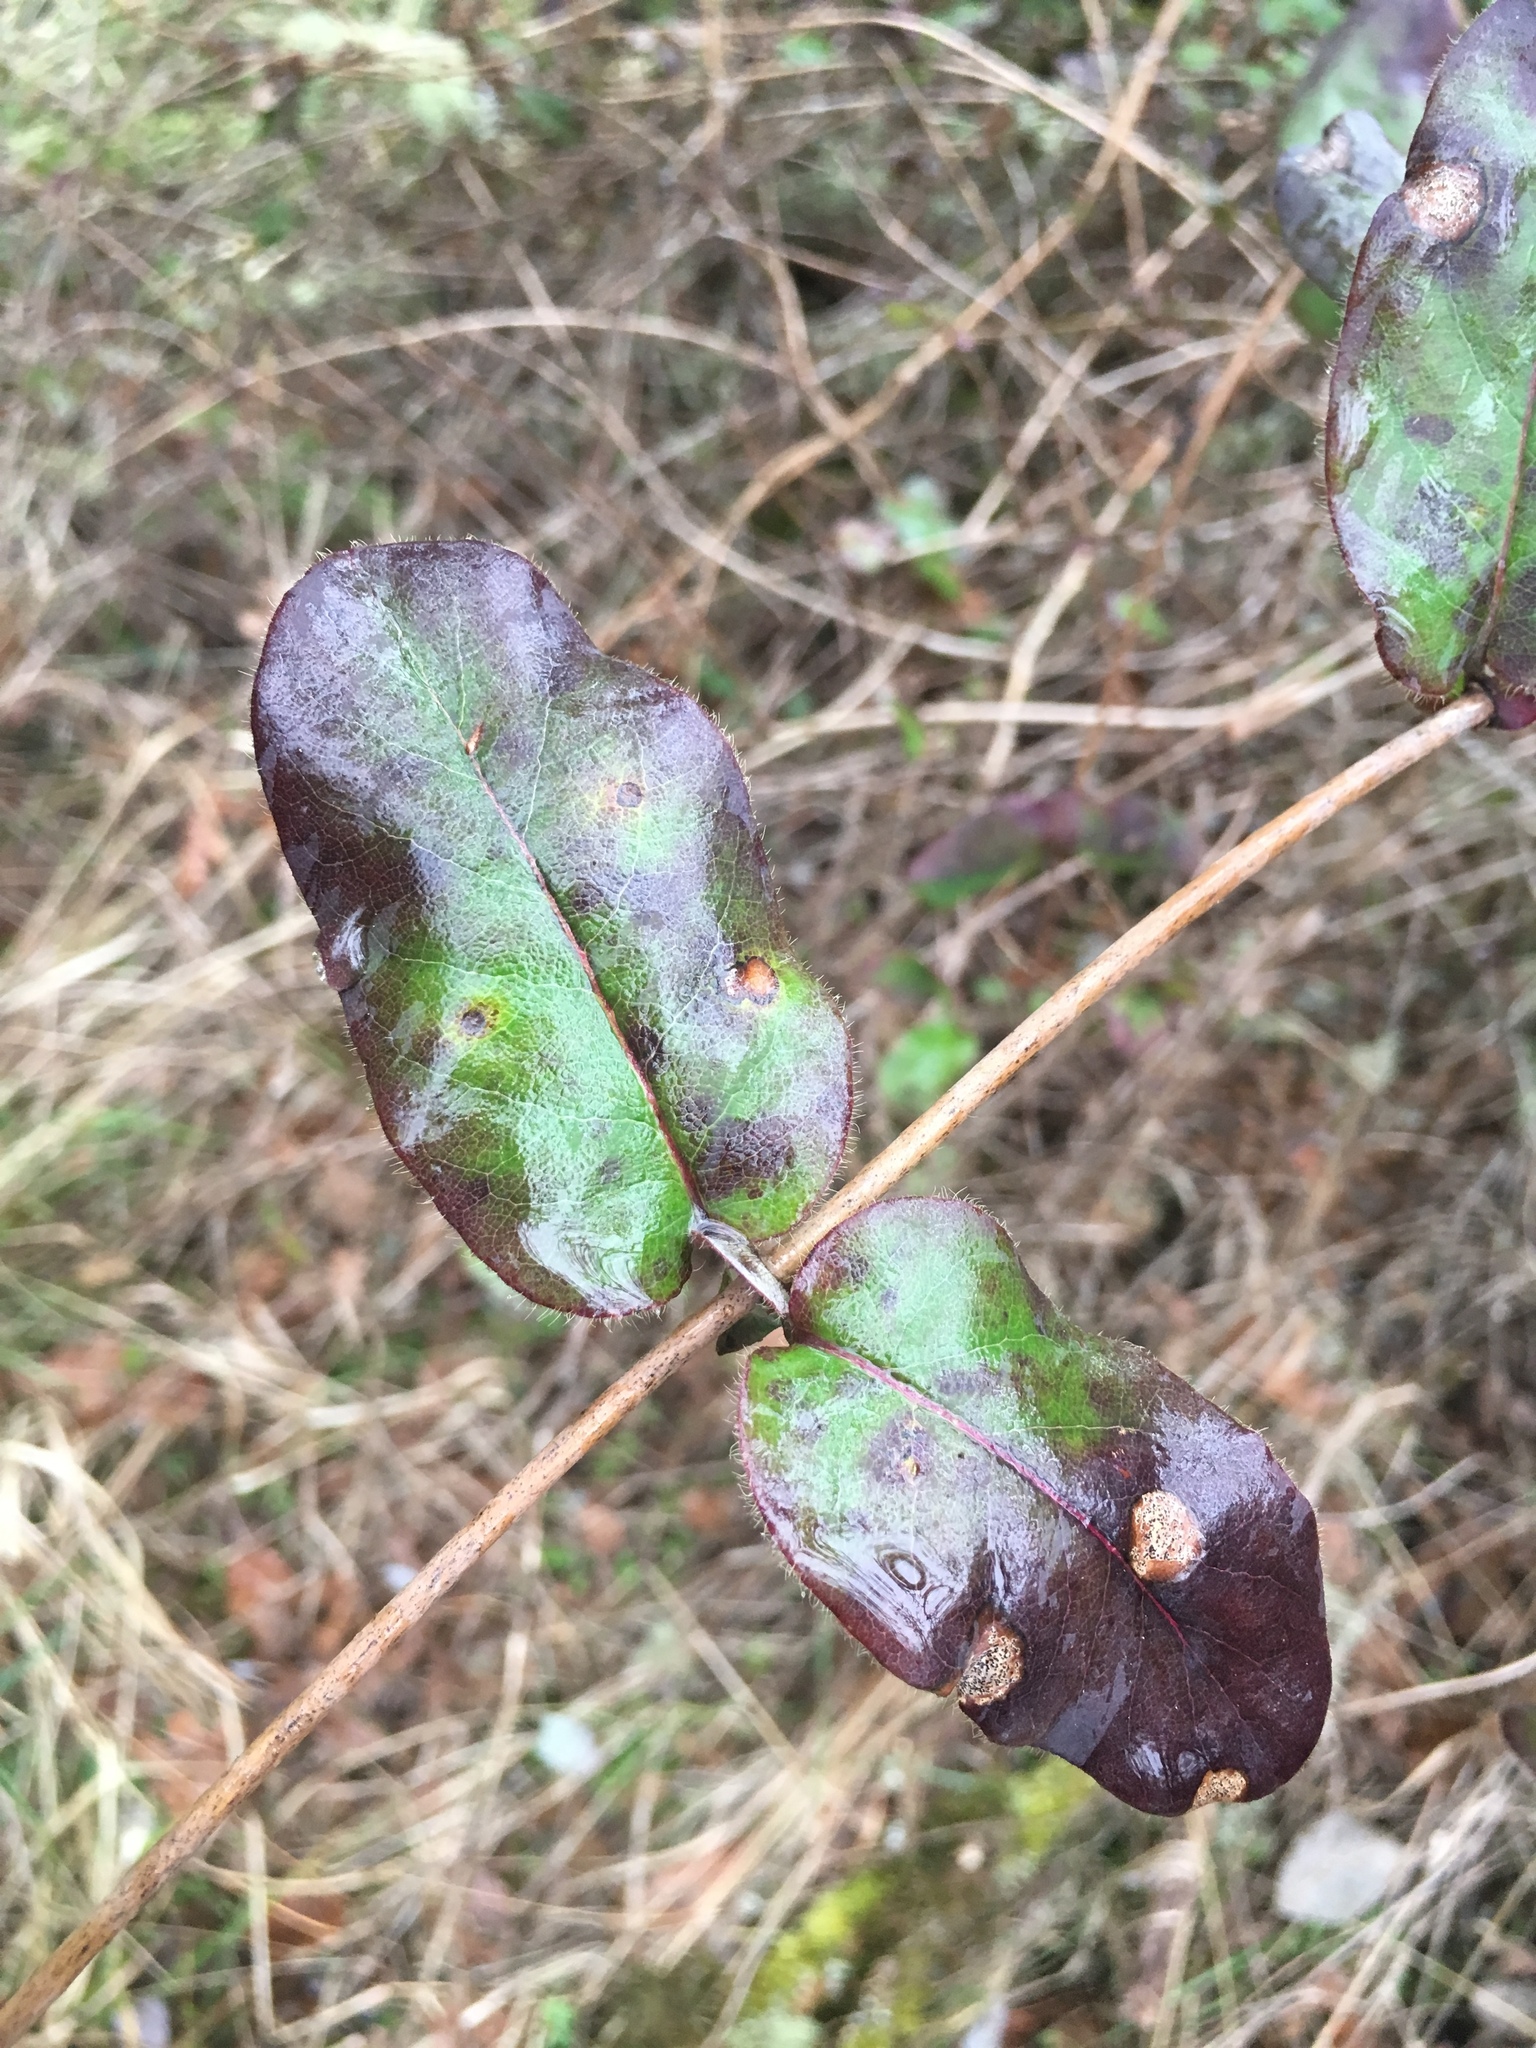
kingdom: Plantae
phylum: Tracheophyta
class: Magnoliopsida
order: Dipsacales
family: Caprifoliaceae
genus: Lonicera
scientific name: Lonicera hispidula
